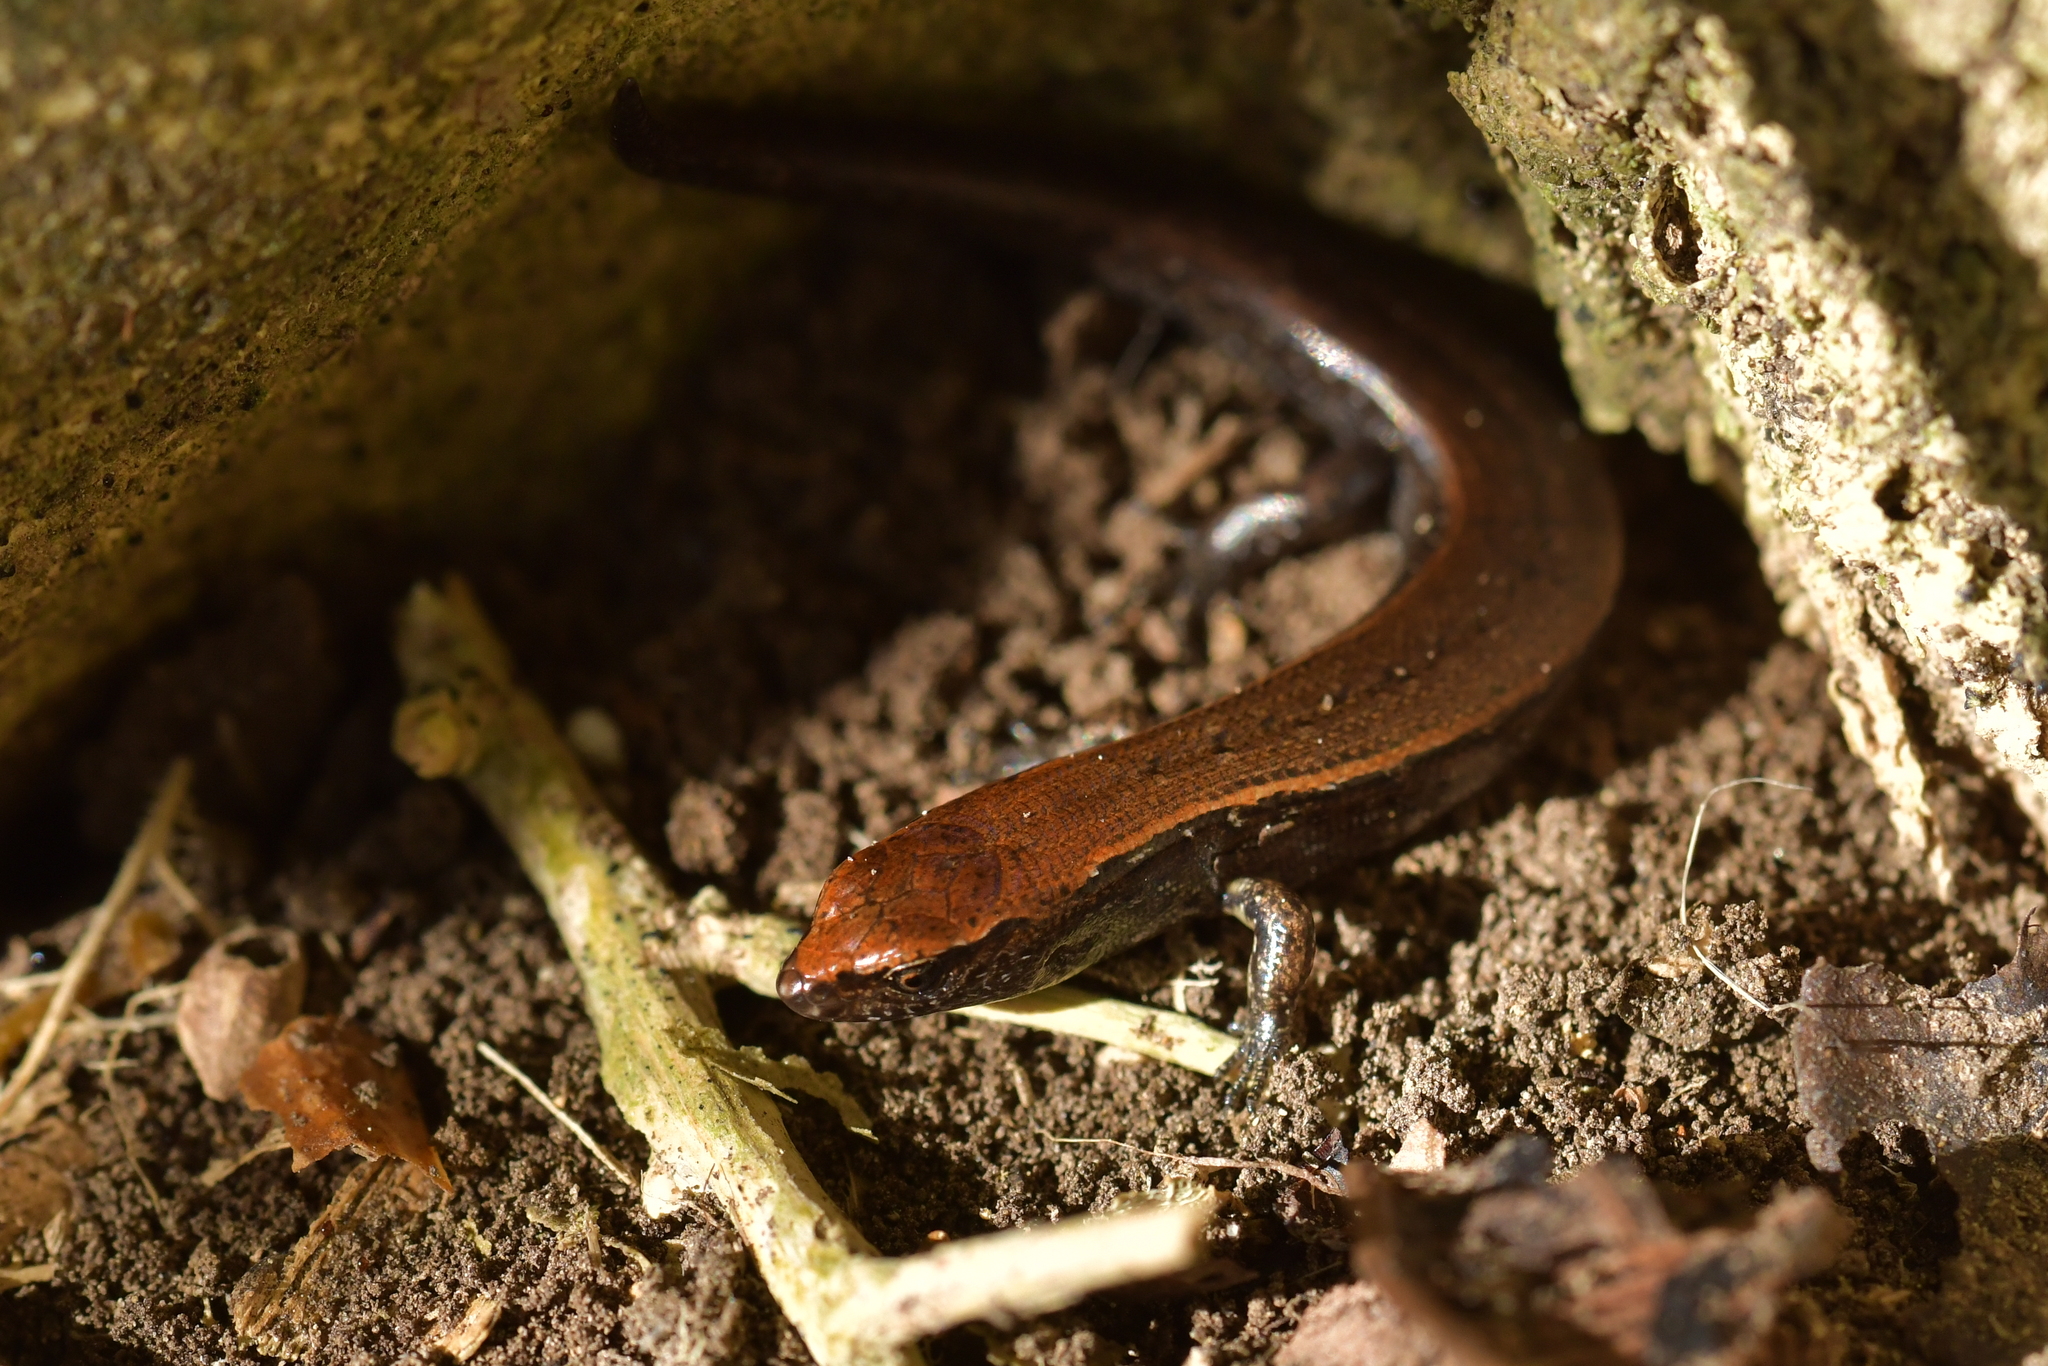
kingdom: Animalia
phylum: Chordata
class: Squamata
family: Scincidae
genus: Oligosoma
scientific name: Oligosoma aeneum
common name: Copper skink
